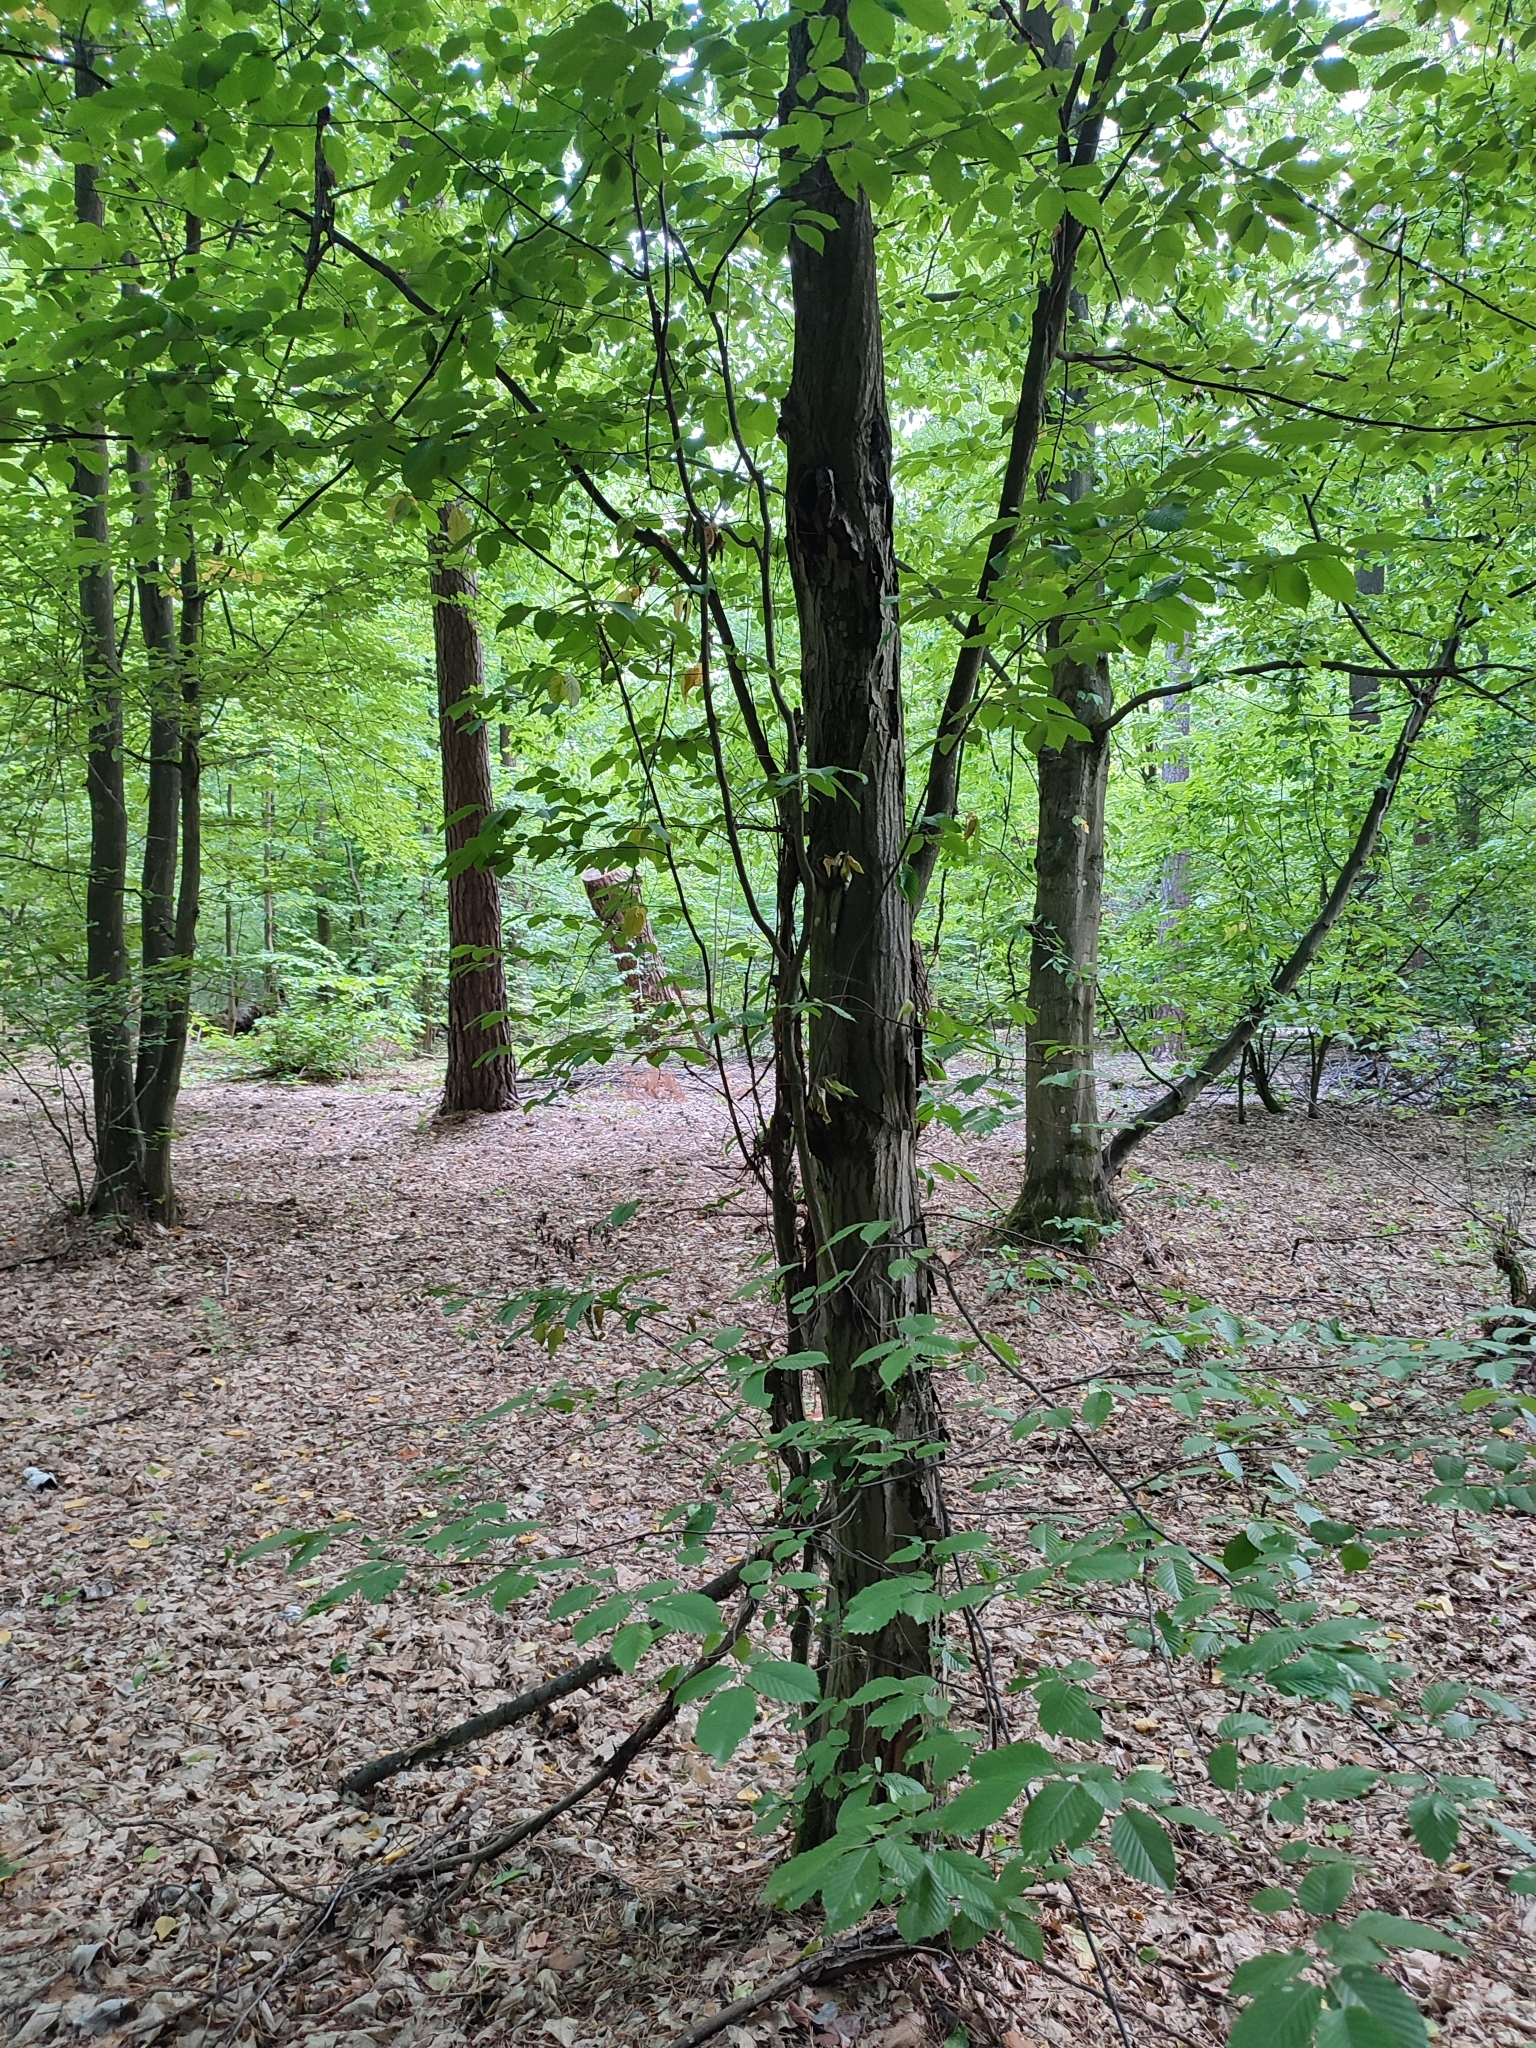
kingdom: Plantae
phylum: Tracheophyta
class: Magnoliopsida
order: Fagales
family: Betulaceae
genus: Carpinus
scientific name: Carpinus betulus
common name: Hornbeam
